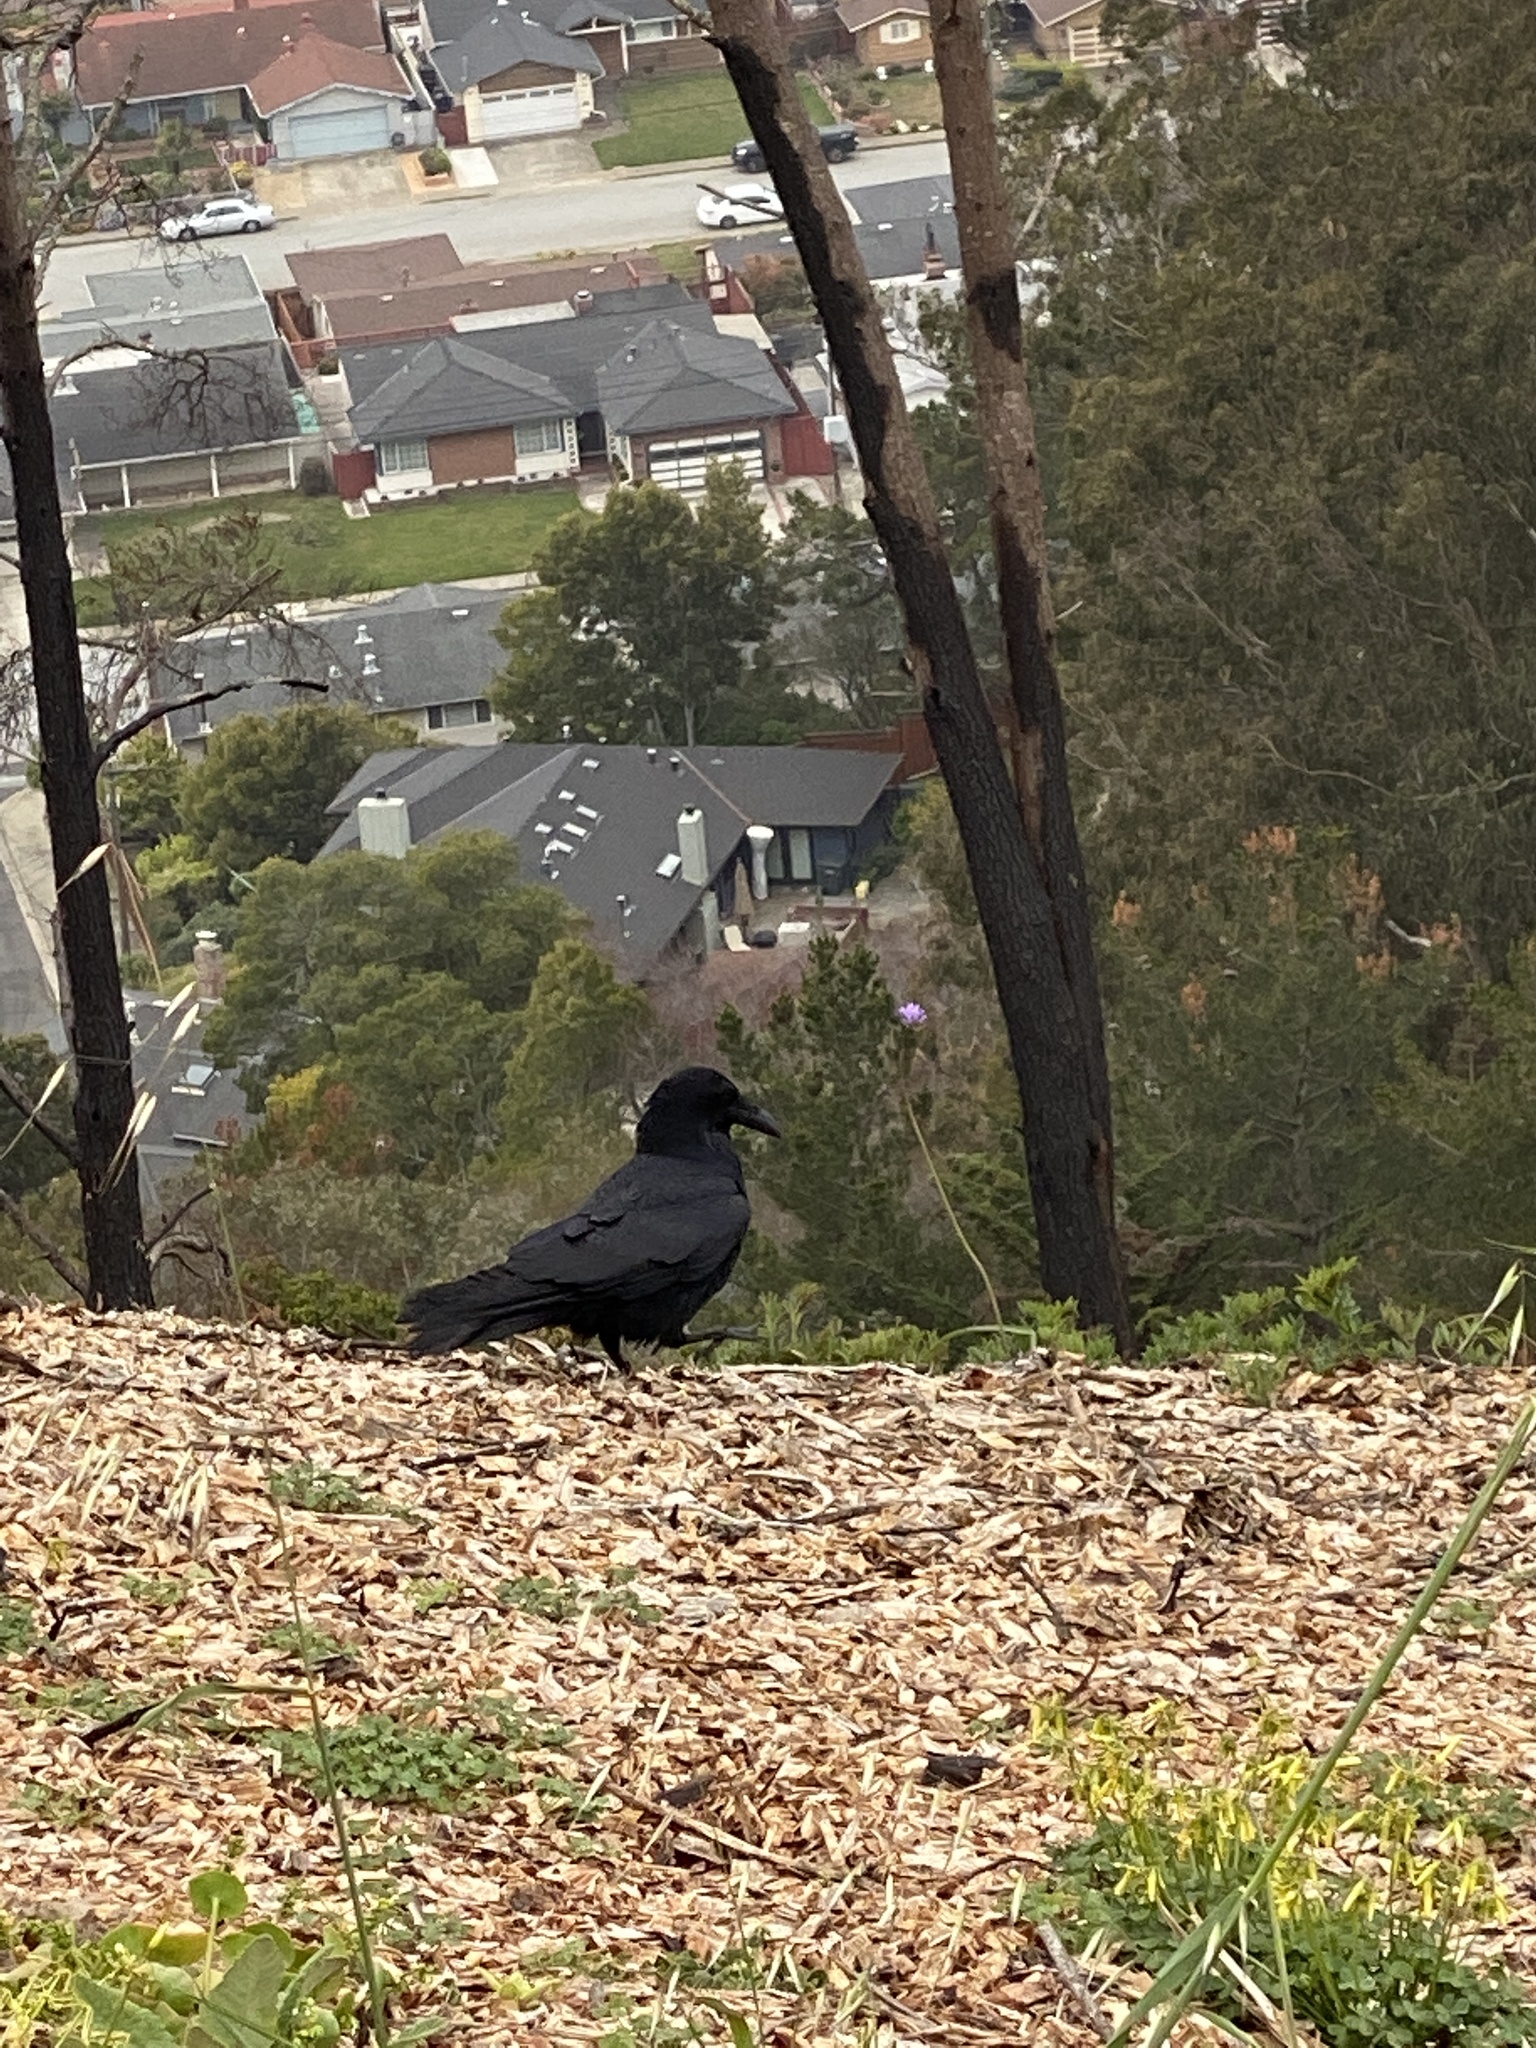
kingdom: Animalia
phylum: Chordata
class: Aves
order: Passeriformes
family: Corvidae
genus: Corvus
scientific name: Corvus corax
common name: Common raven
